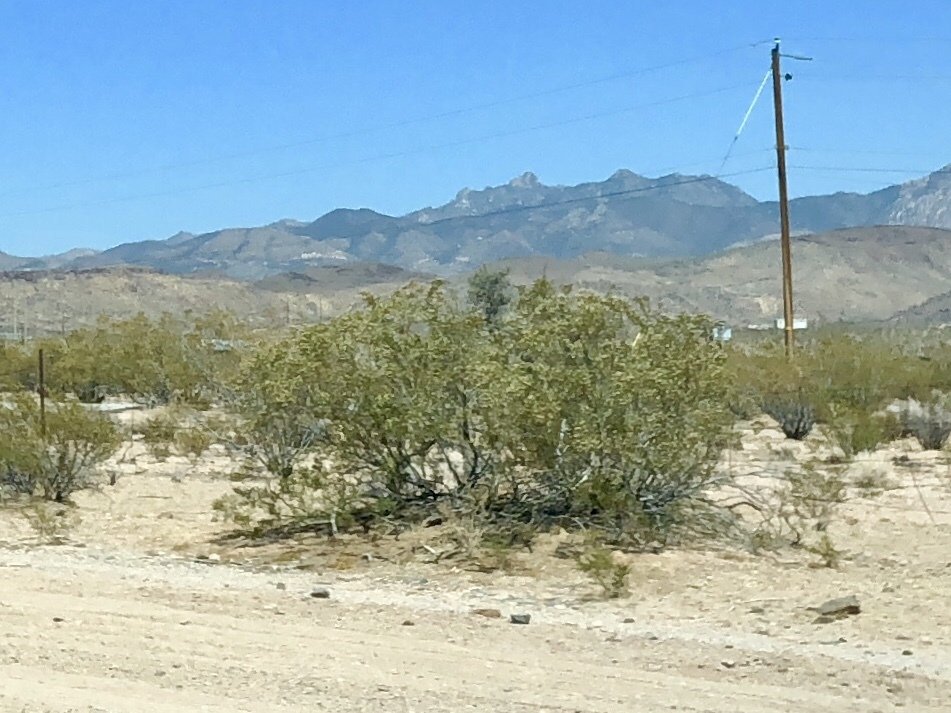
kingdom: Plantae
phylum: Tracheophyta
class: Magnoliopsida
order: Zygophyllales
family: Zygophyllaceae
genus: Larrea
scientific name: Larrea tridentata
